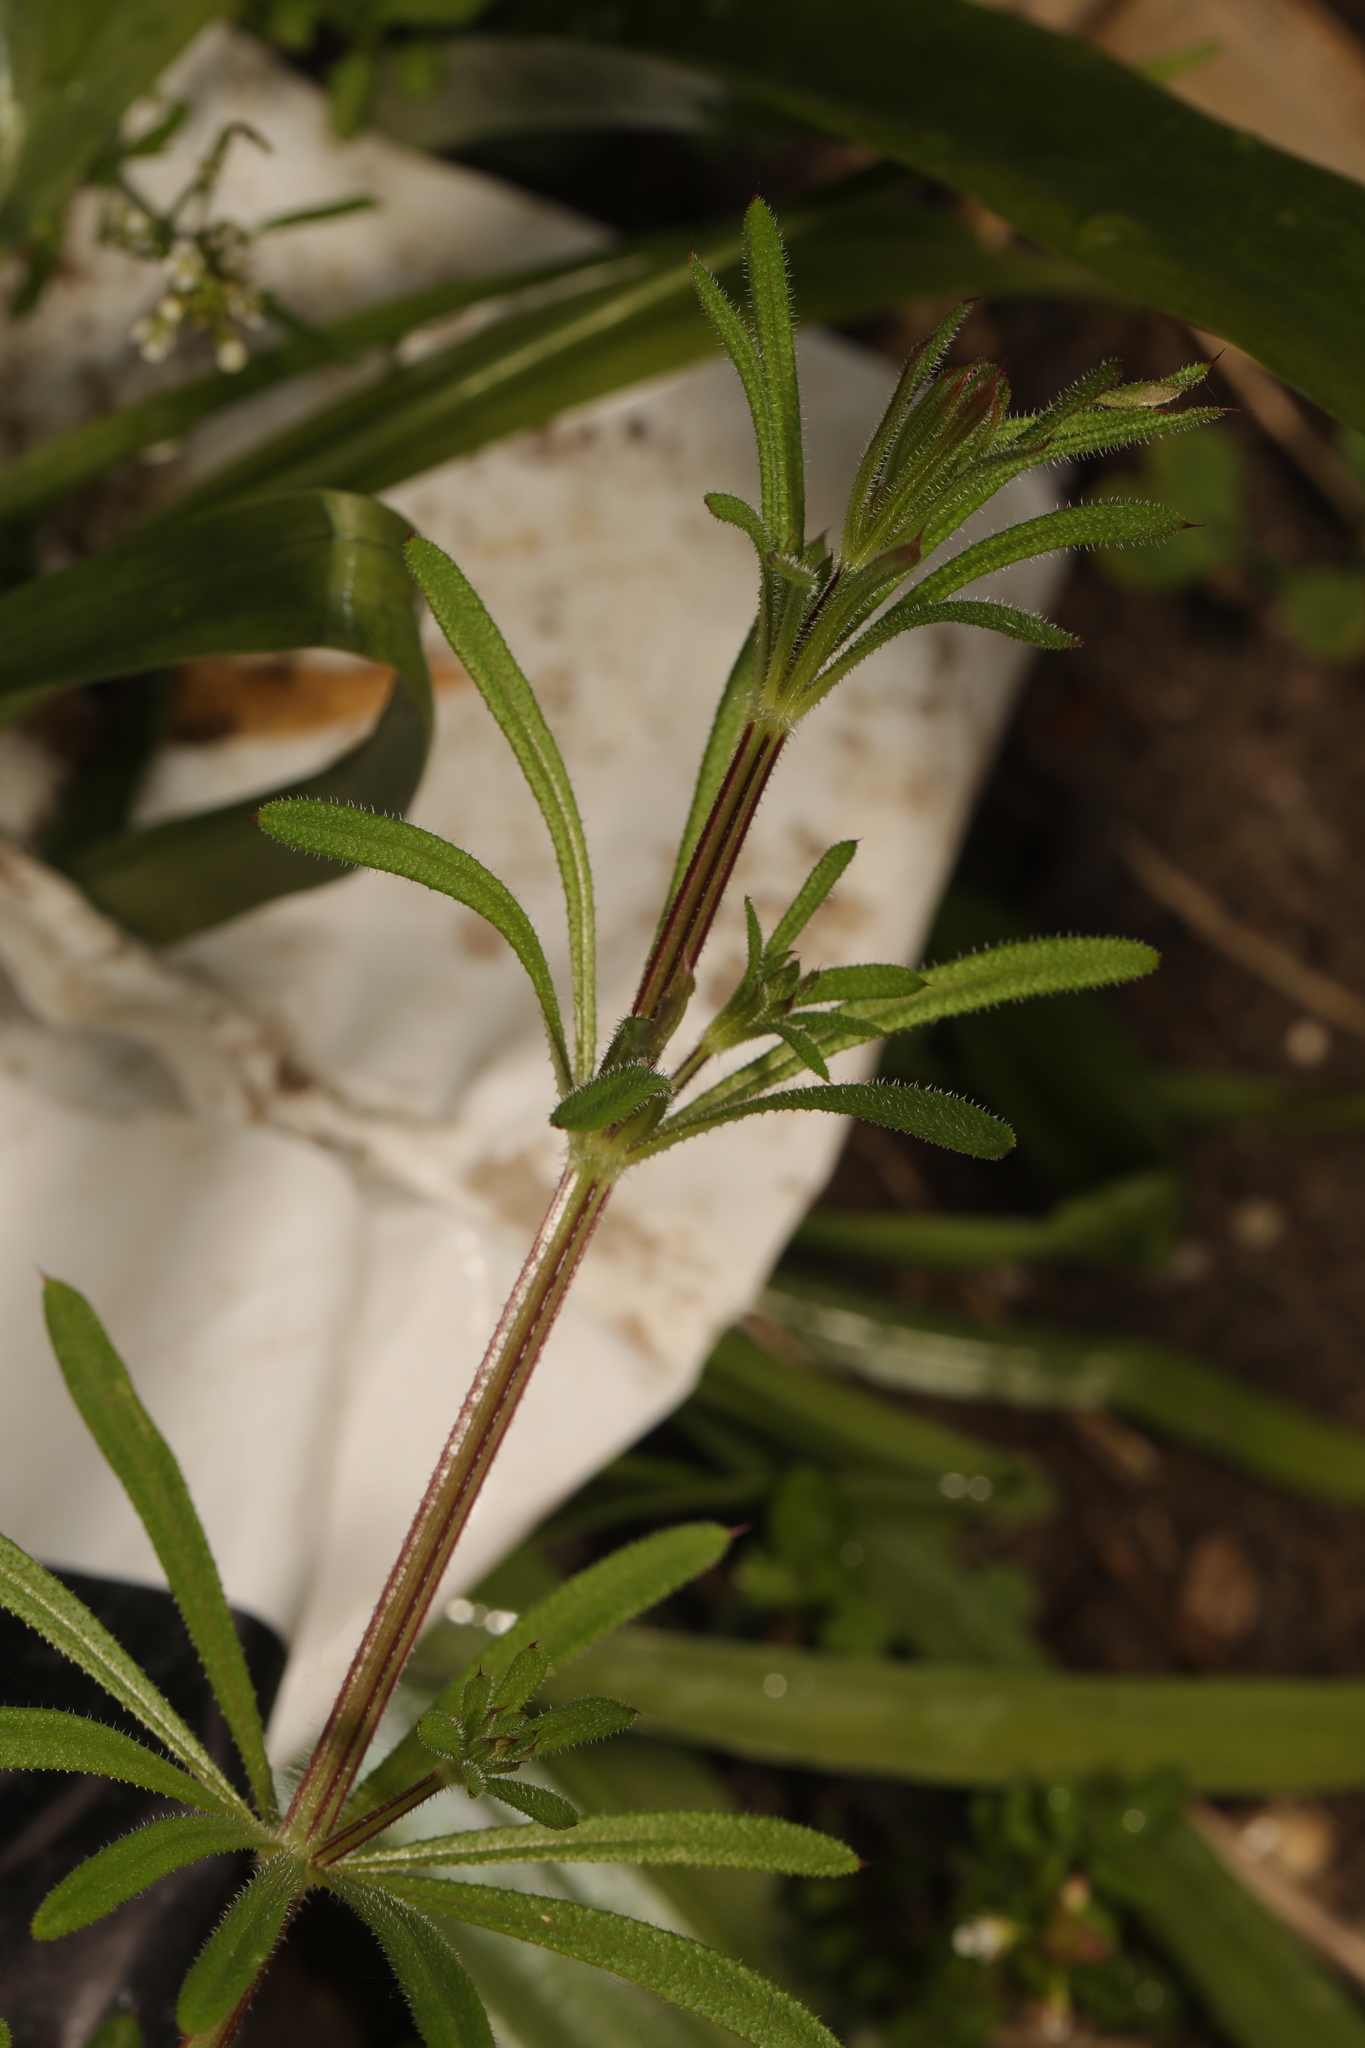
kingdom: Plantae
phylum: Tracheophyta
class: Magnoliopsida
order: Gentianales
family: Rubiaceae
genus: Galium
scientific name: Galium aparine
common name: Cleavers
